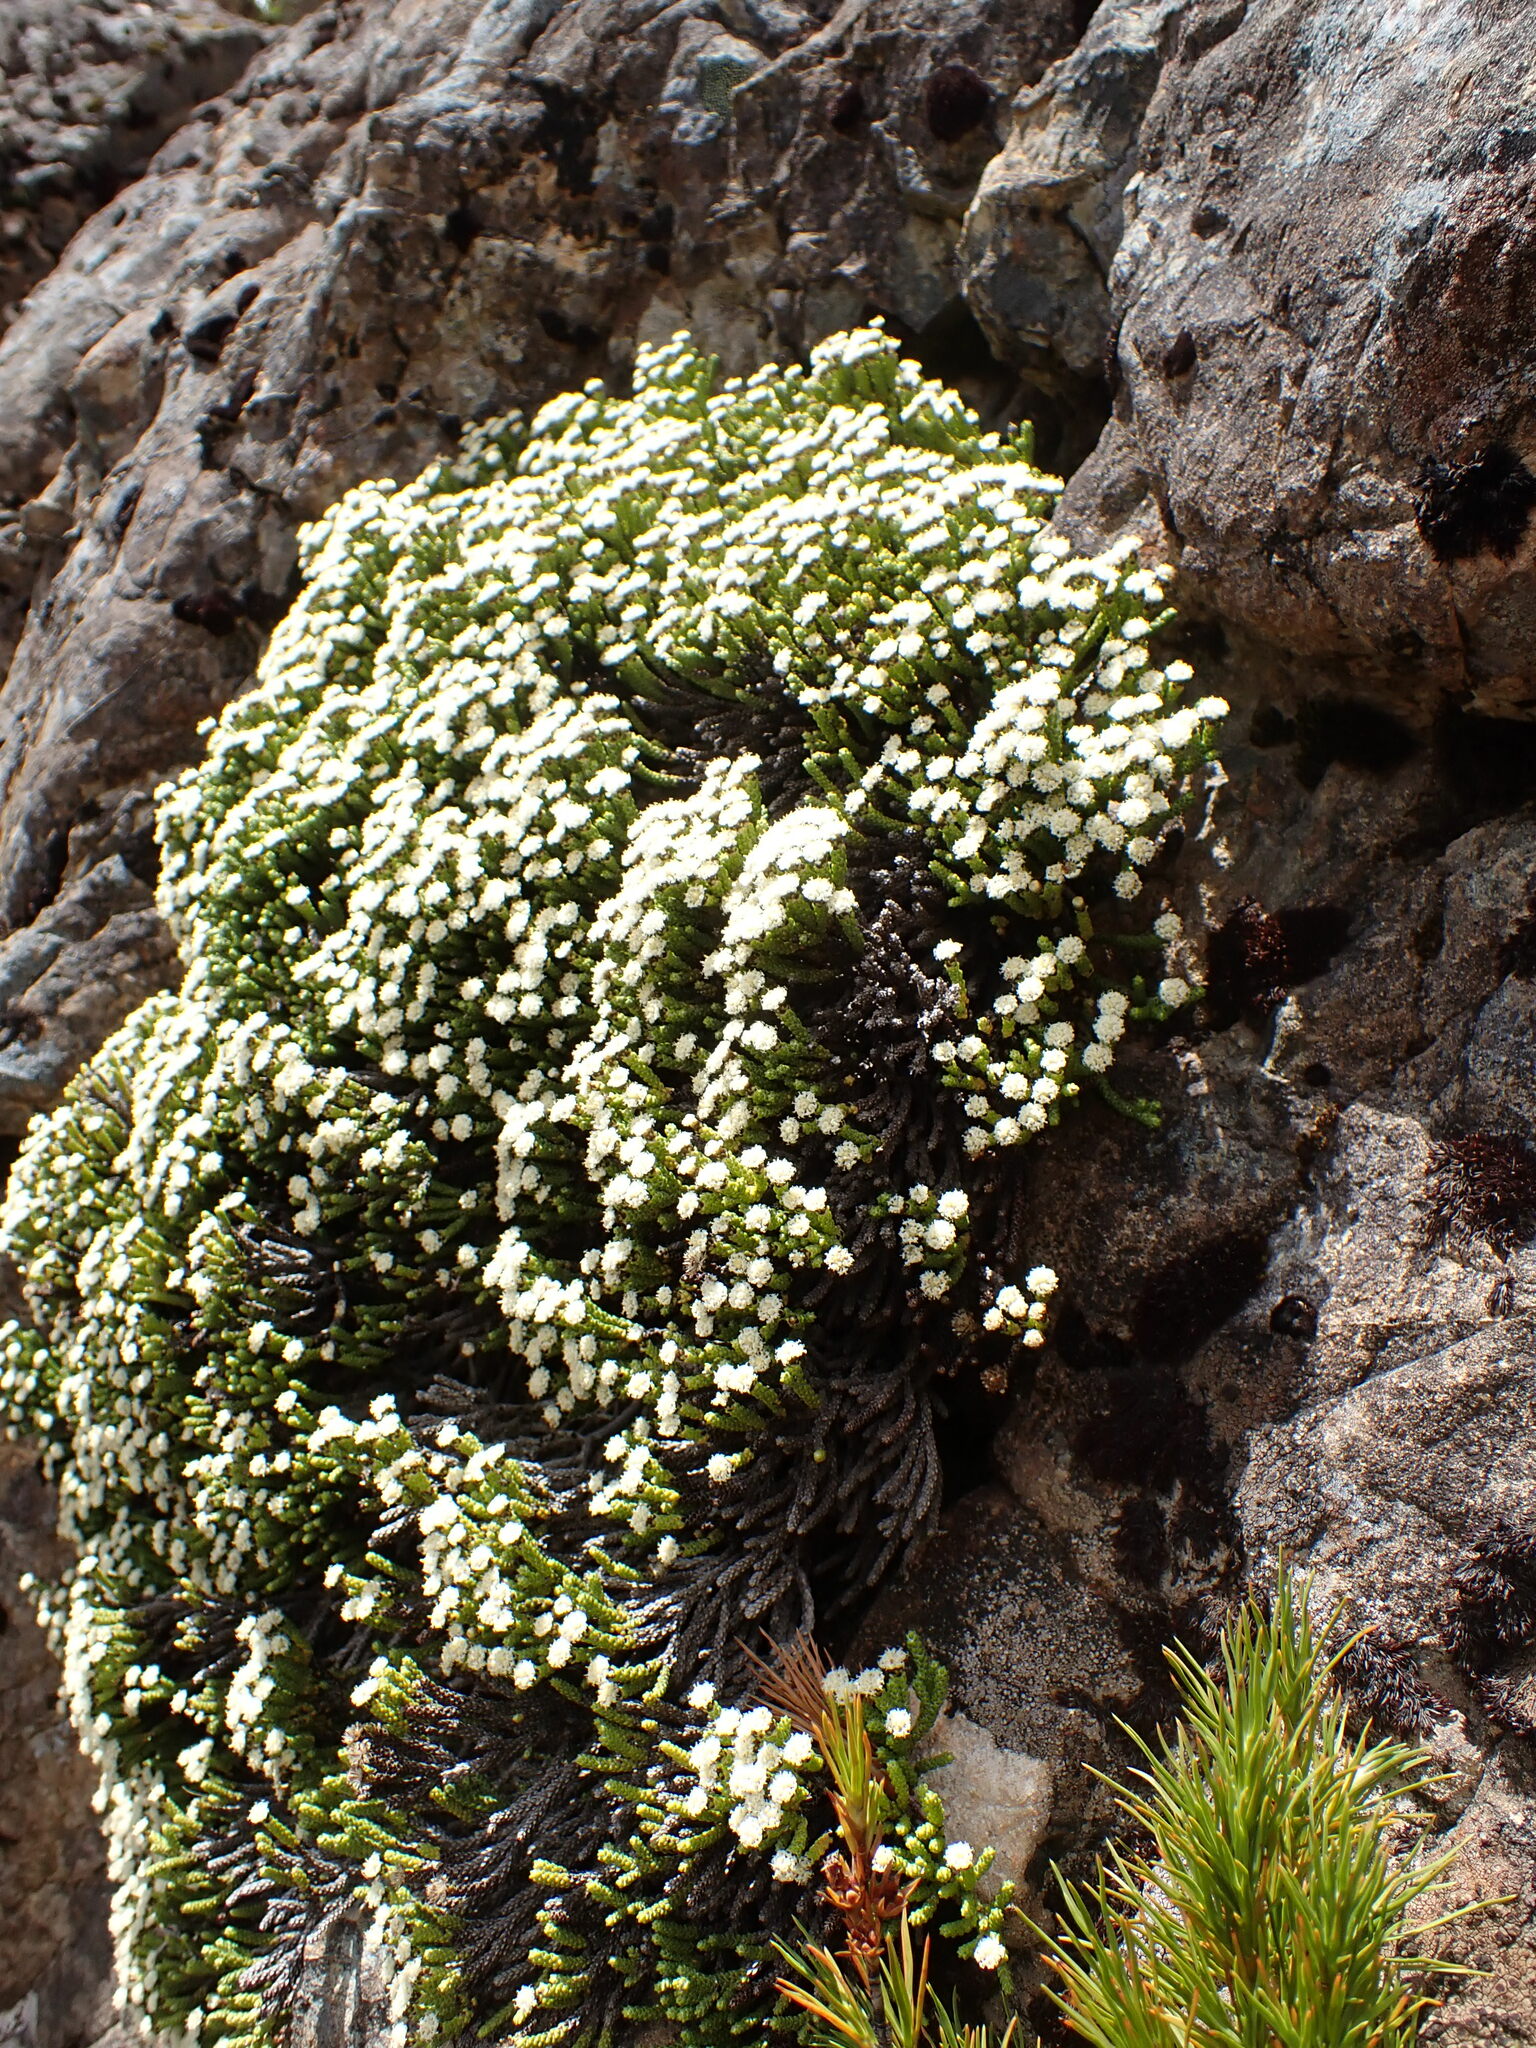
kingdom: Plantae
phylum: Tracheophyta
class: Magnoliopsida
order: Asterales
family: Asteraceae
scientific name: Asteraceae
